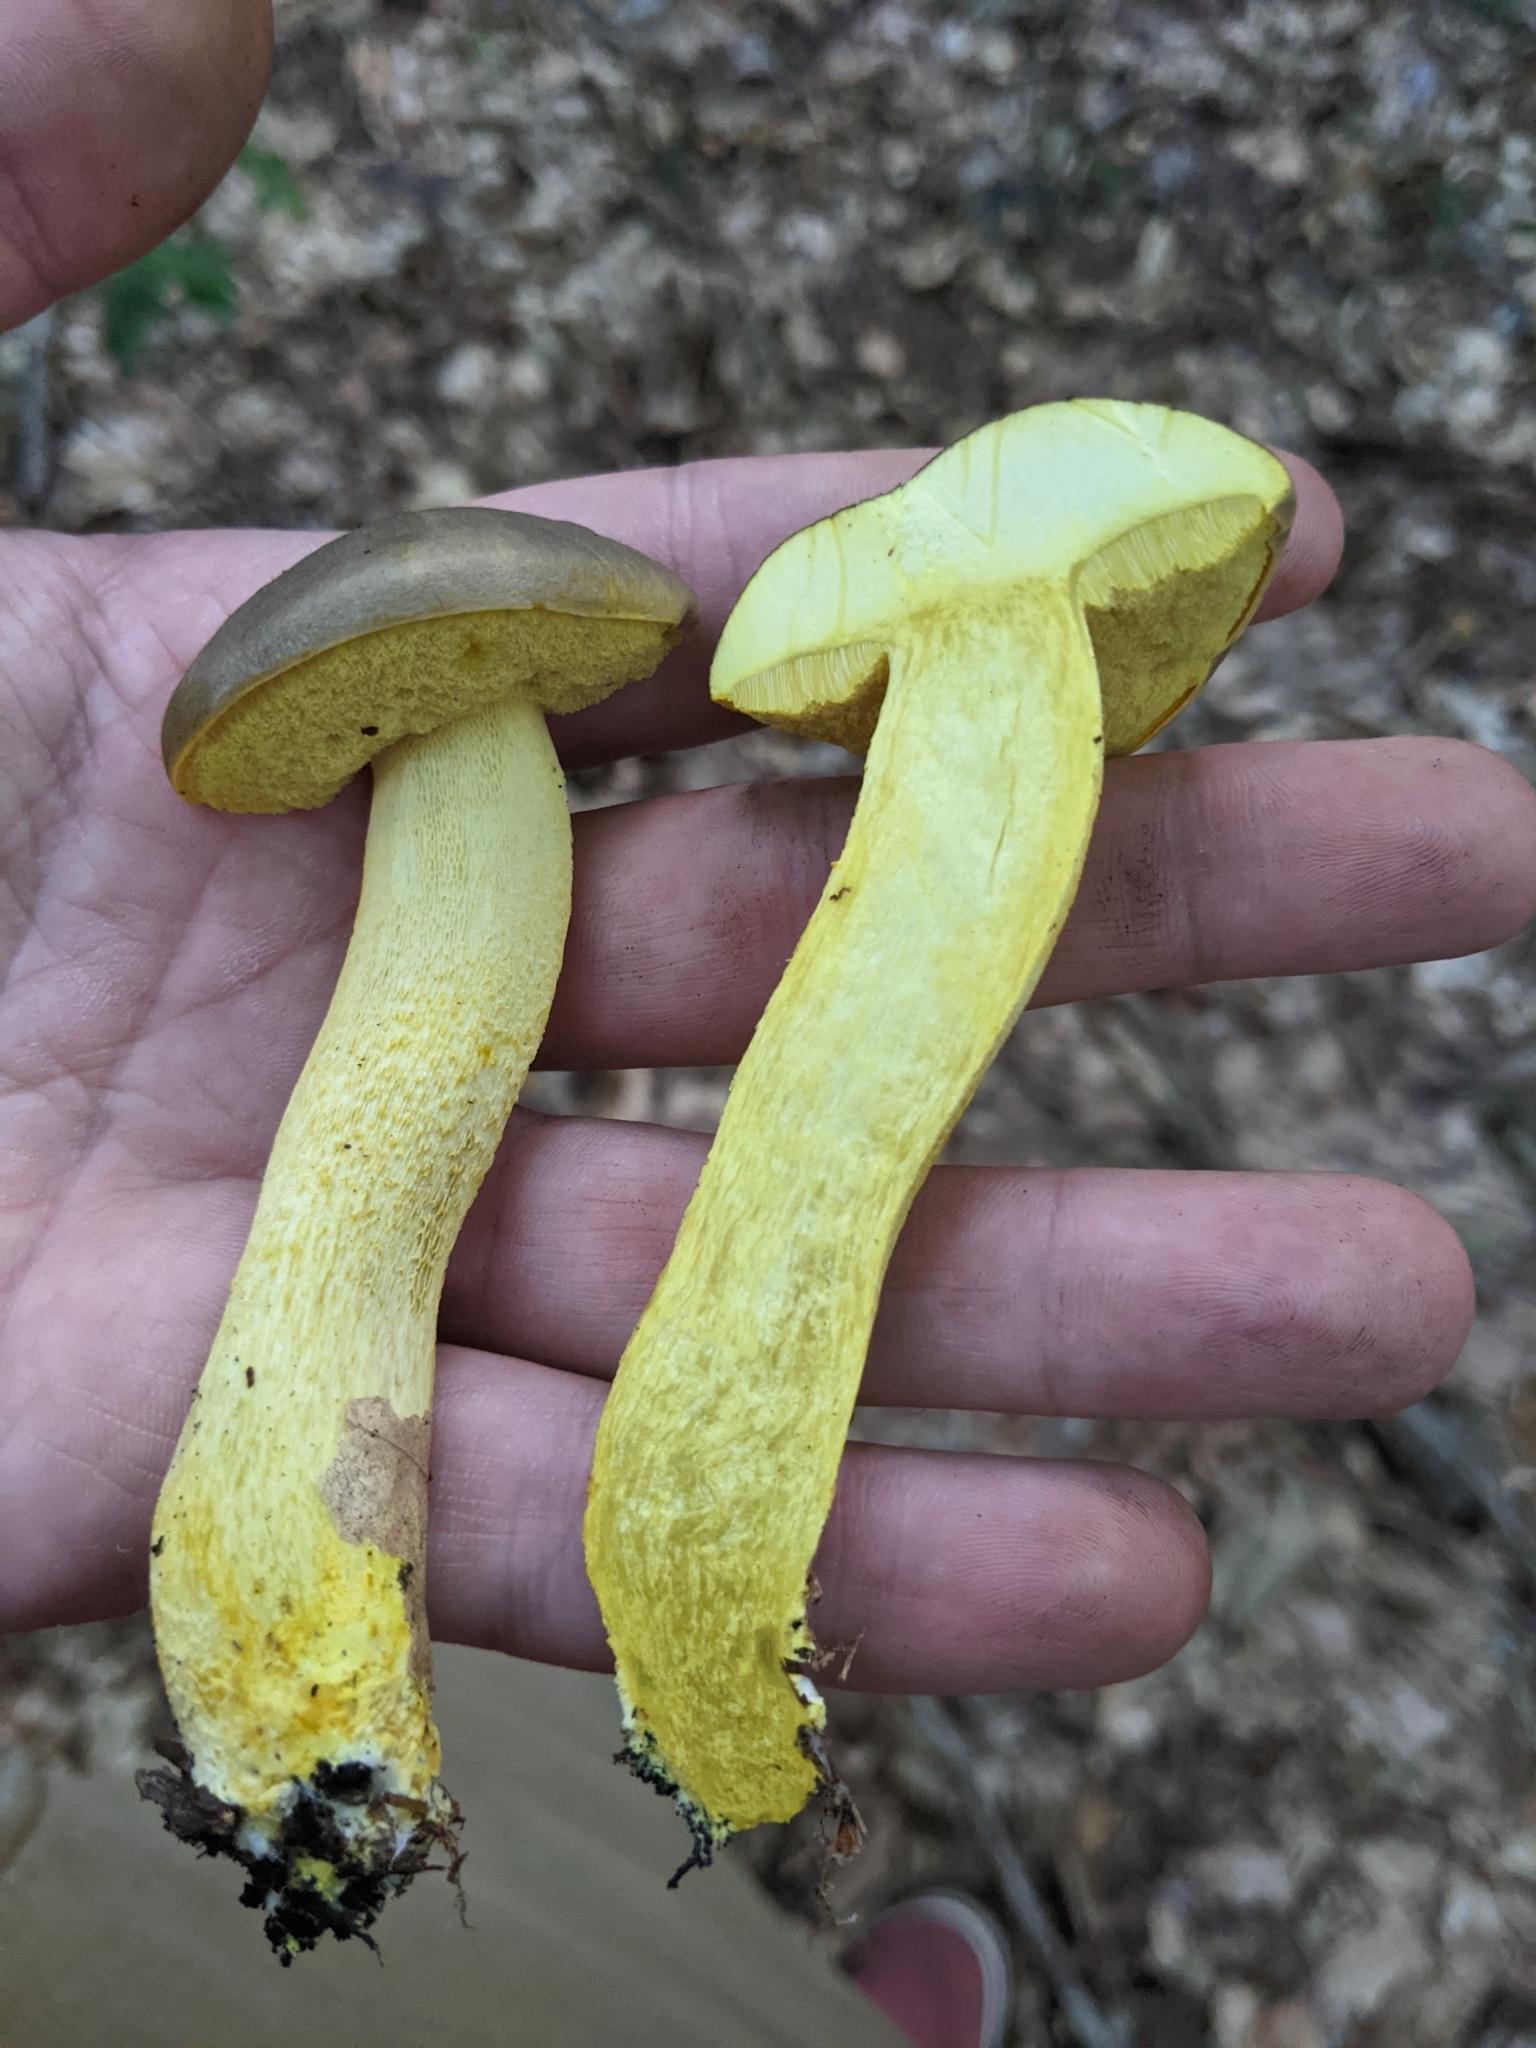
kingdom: Fungi
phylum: Basidiomycota
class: Agaricomycetes
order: Boletales
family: Boletaceae
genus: Retiboletus
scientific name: Retiboletus ornatipes
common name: Ornate-stalked bolete
